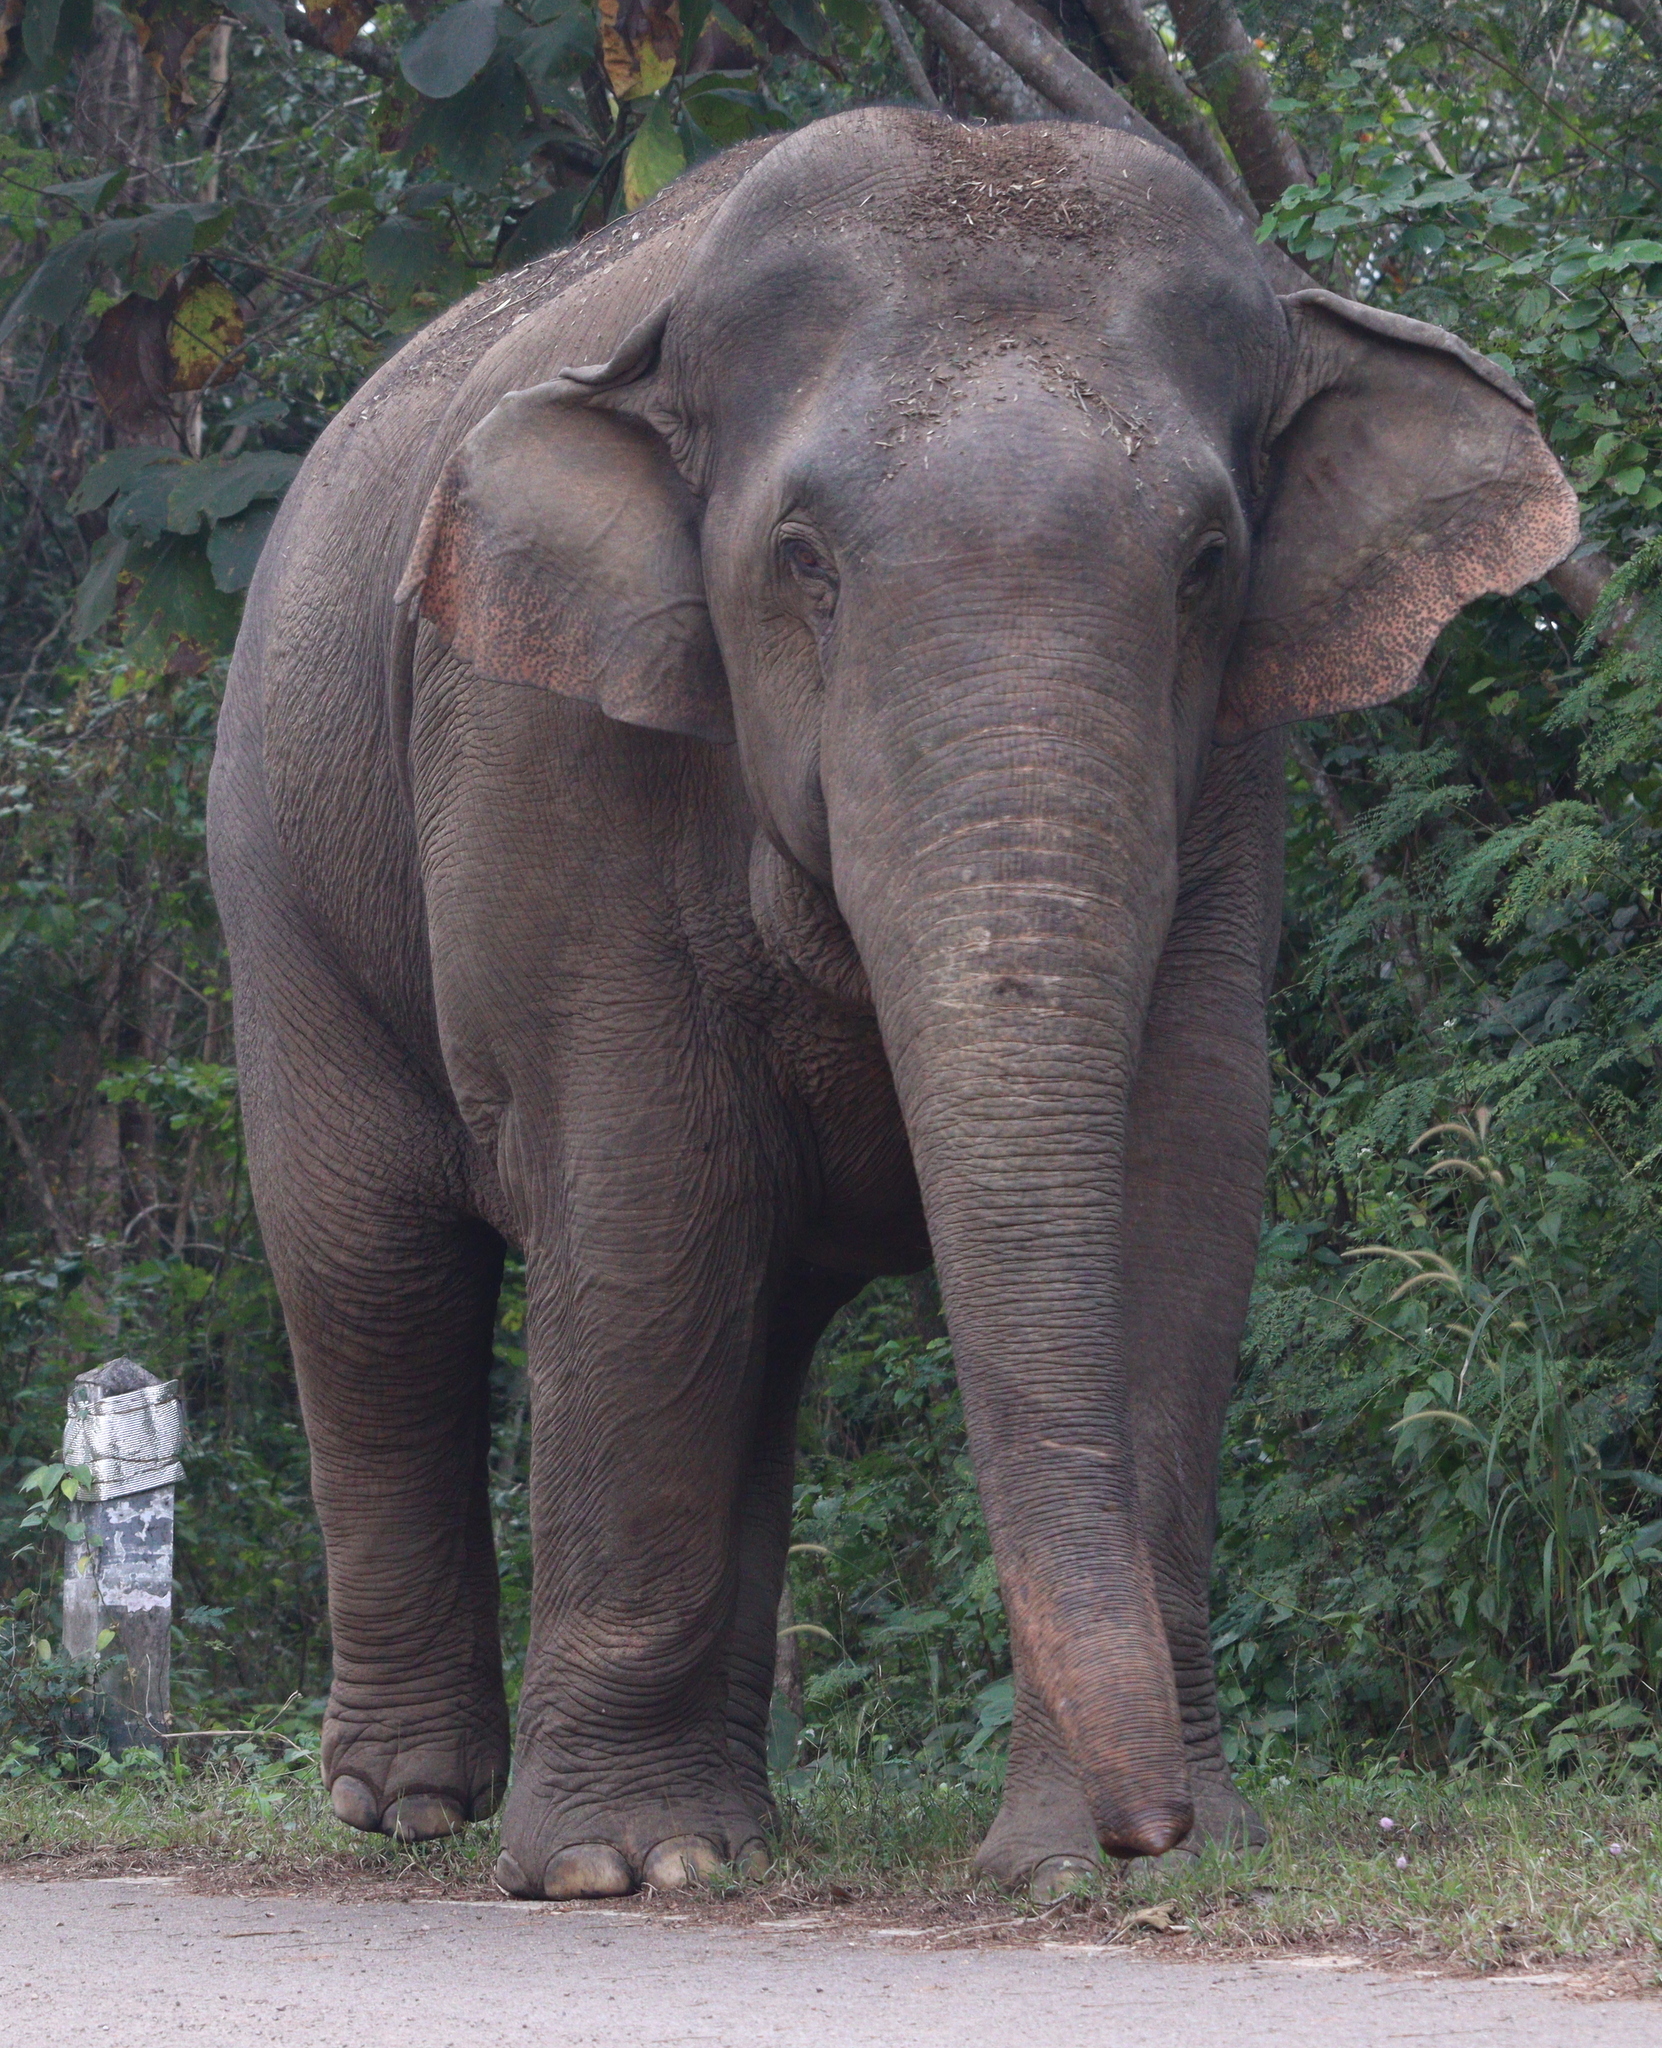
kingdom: Animalia
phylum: Chordata
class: Mammalia
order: Proboscidea
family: Elephantidae
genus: Elephas
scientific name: Elephas maximus
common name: Asian elephant
